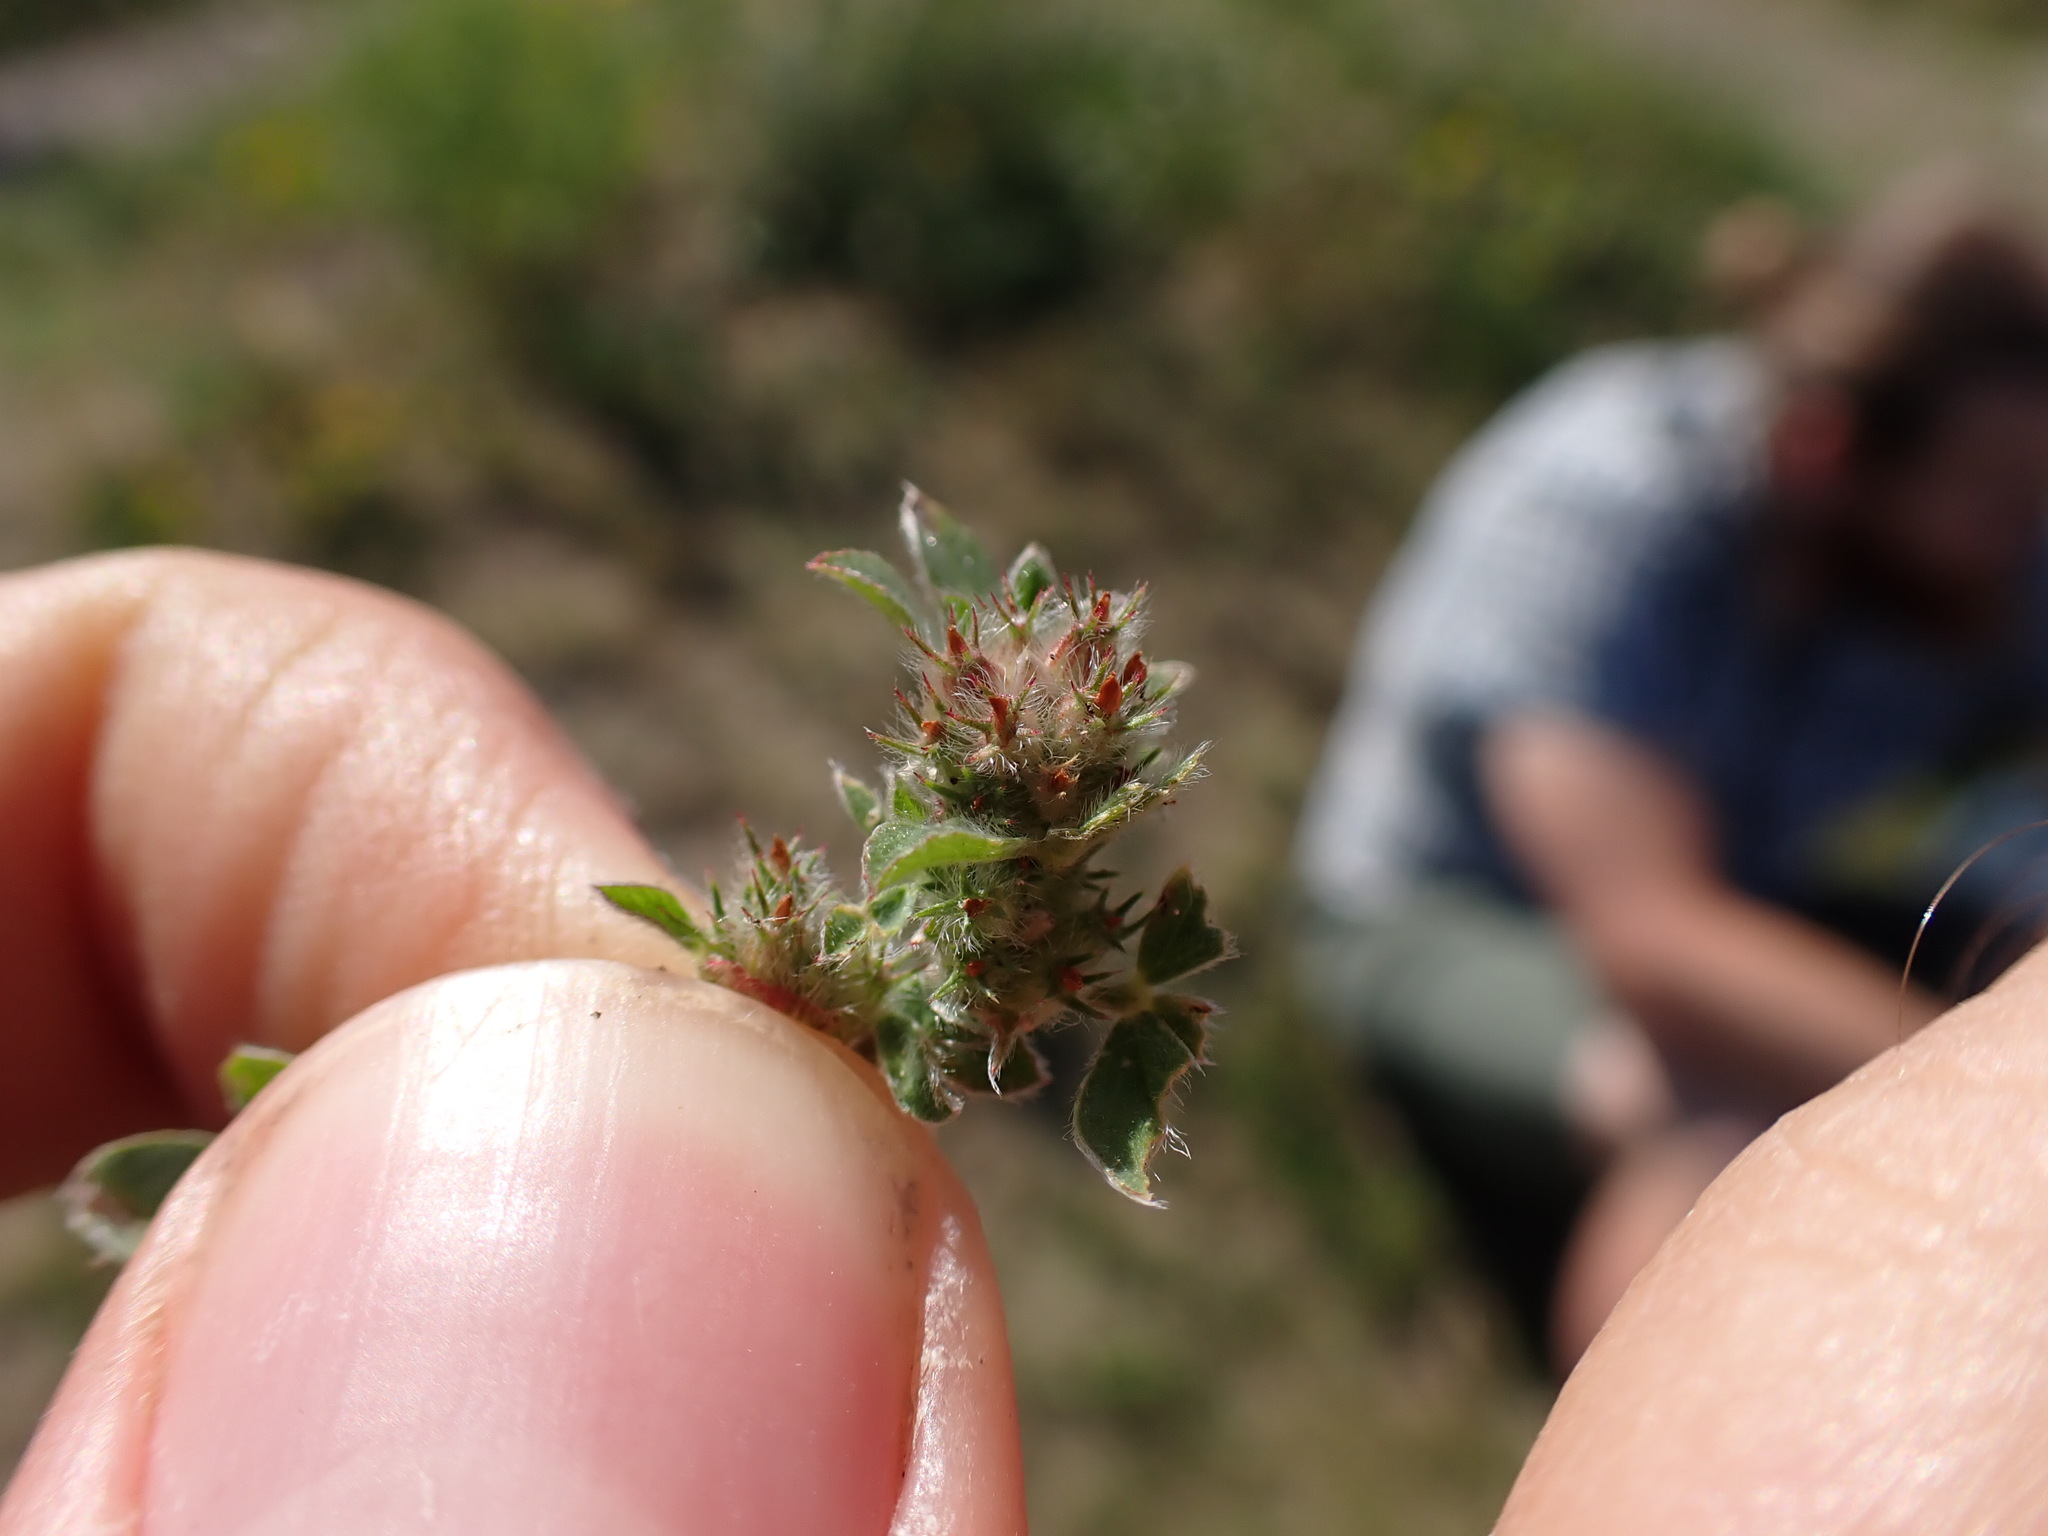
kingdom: Plantae
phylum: Tracheophyta
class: Magnoliopsida
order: Fabales
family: Fabaceae
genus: Trifolium
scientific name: Trifolium striatum
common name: Knotted clover
